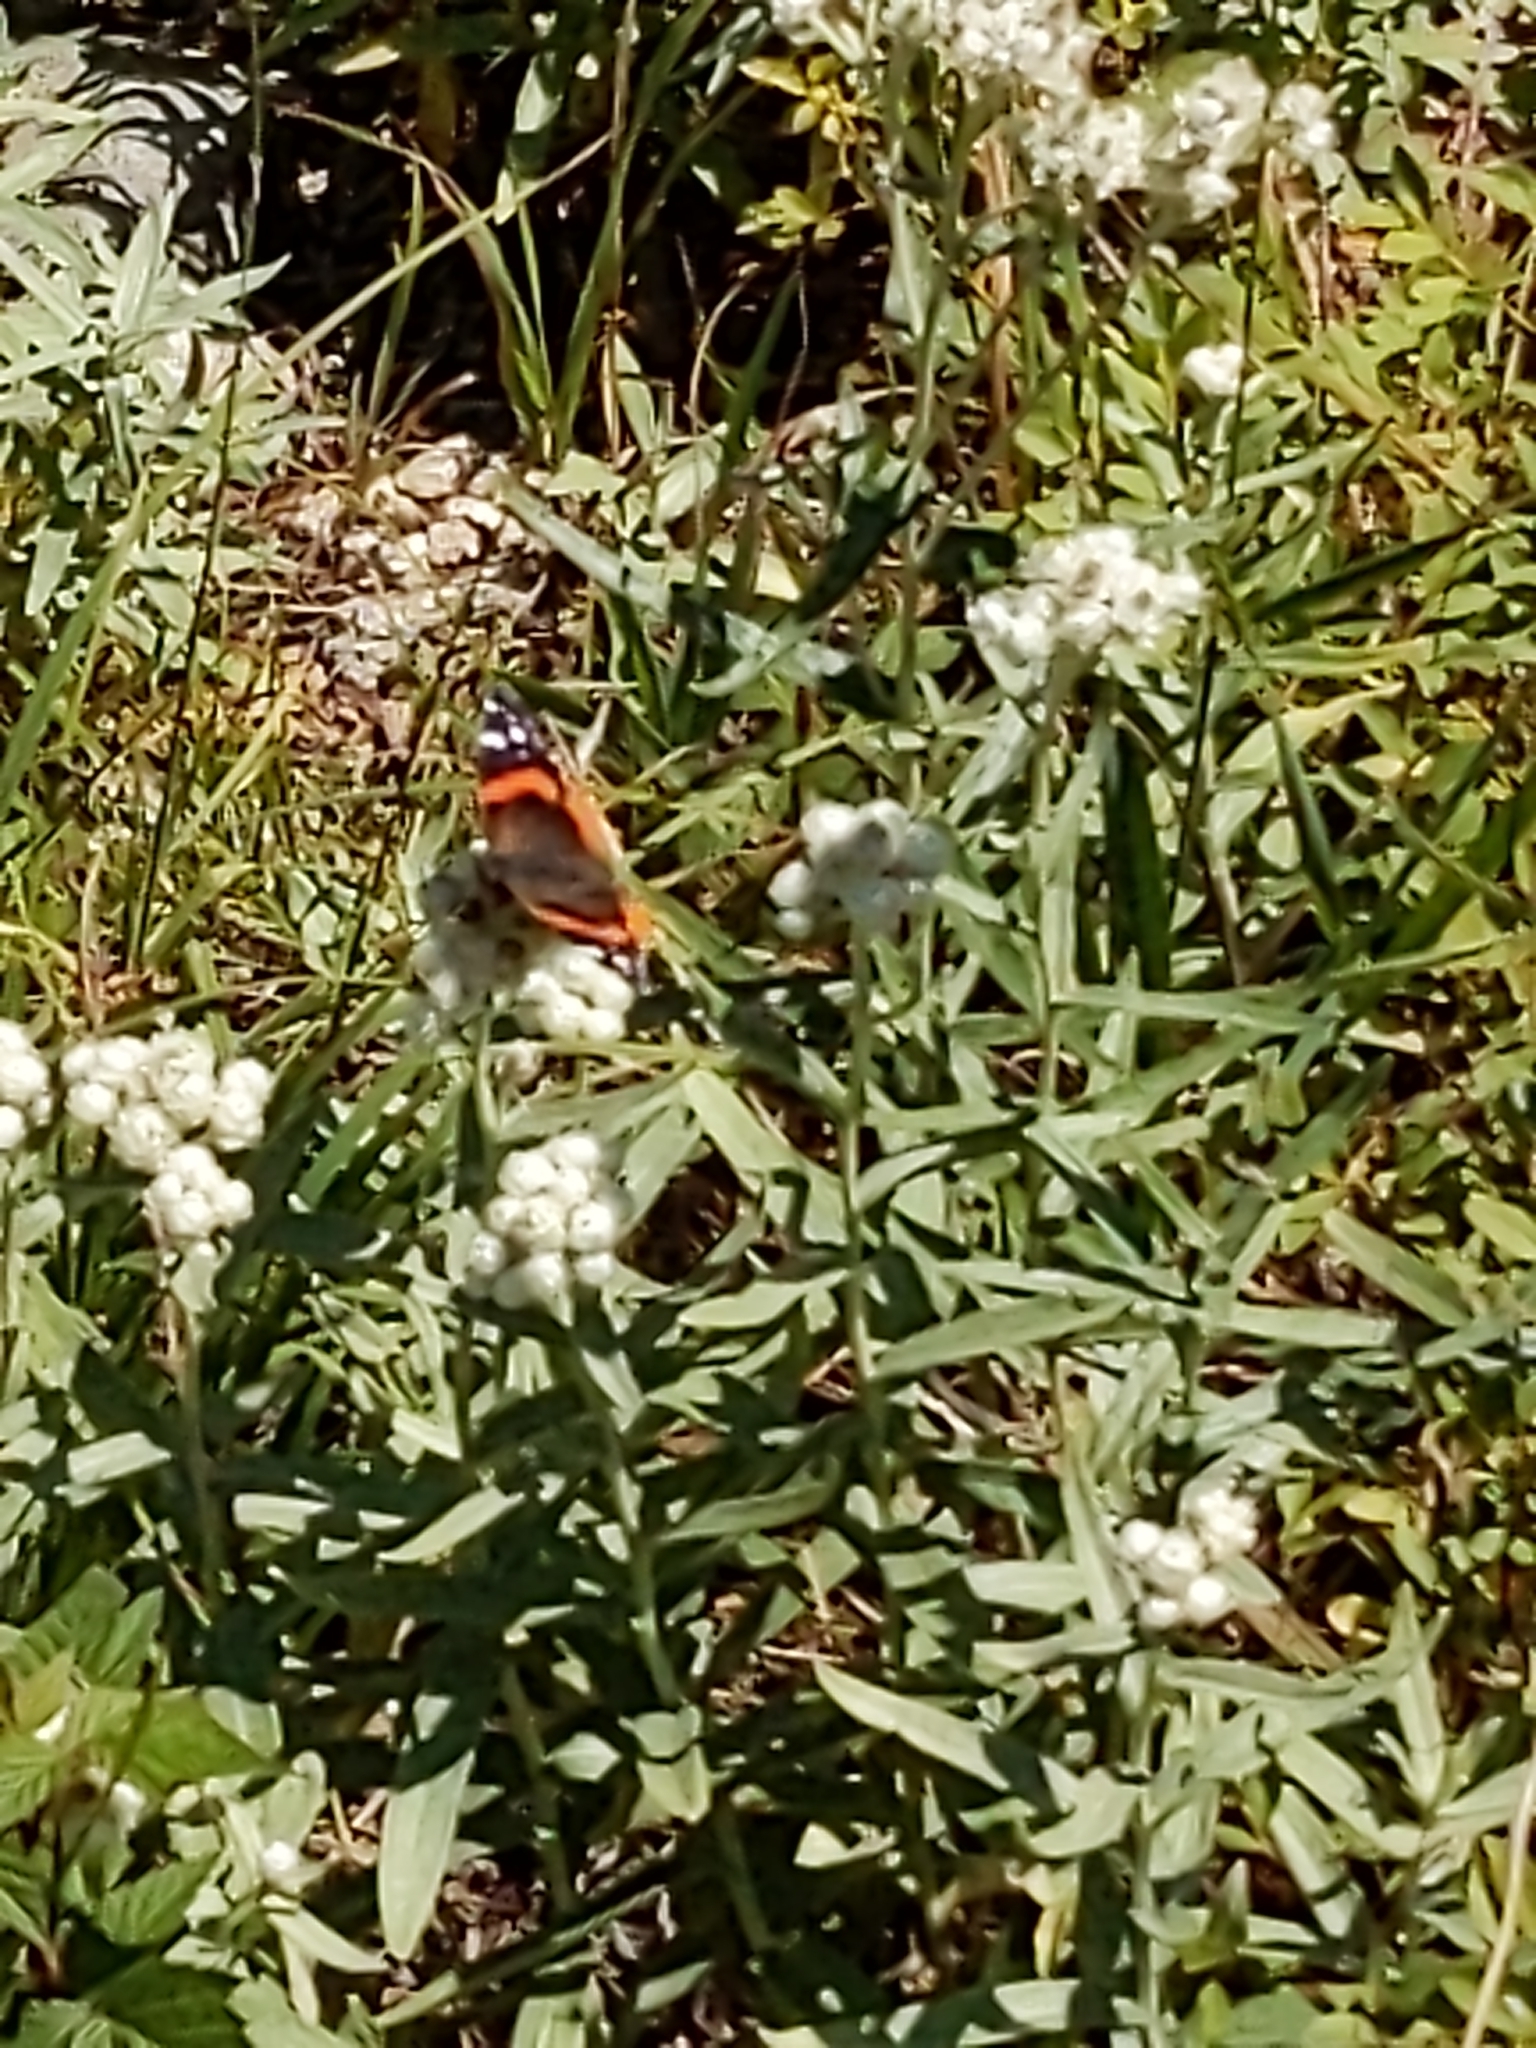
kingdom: Animalia
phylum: Arthropoda
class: Insecta
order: Lepidoptera
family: Nymphalidae
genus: Vanessa
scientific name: Vanessa atalanta
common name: Red admiral
